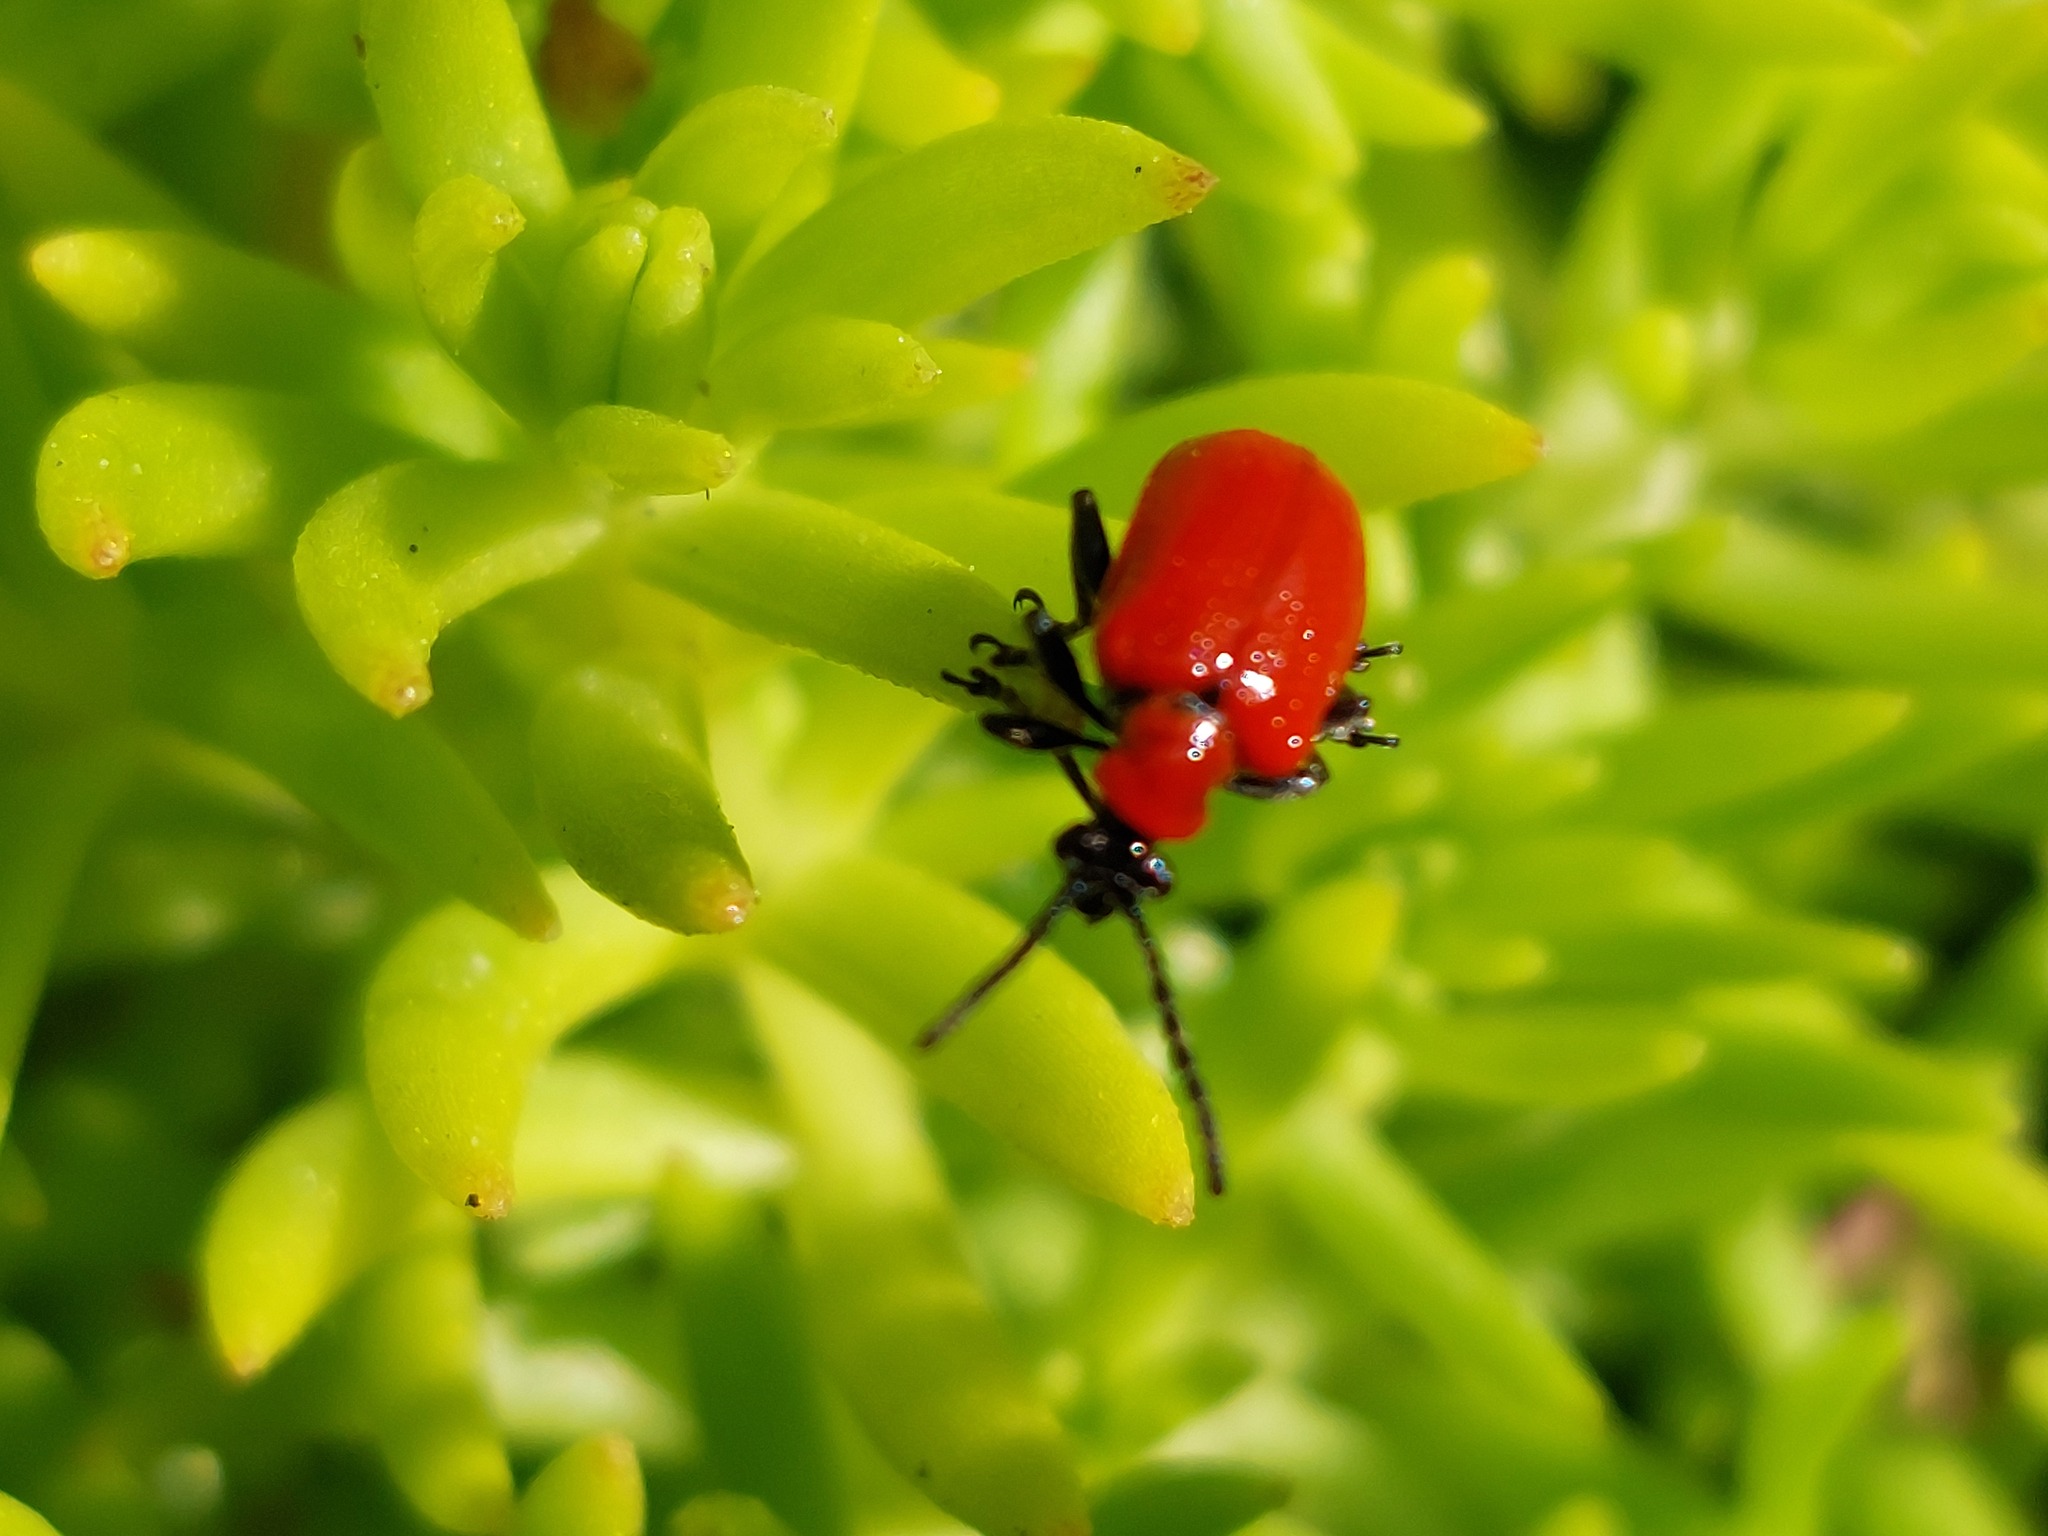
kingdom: Animalia
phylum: Arthropoda
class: Insecta
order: Coleoptera
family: Chrysomelidae
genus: Lilioceris
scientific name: Lilioceris lilii
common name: Lily beetle
